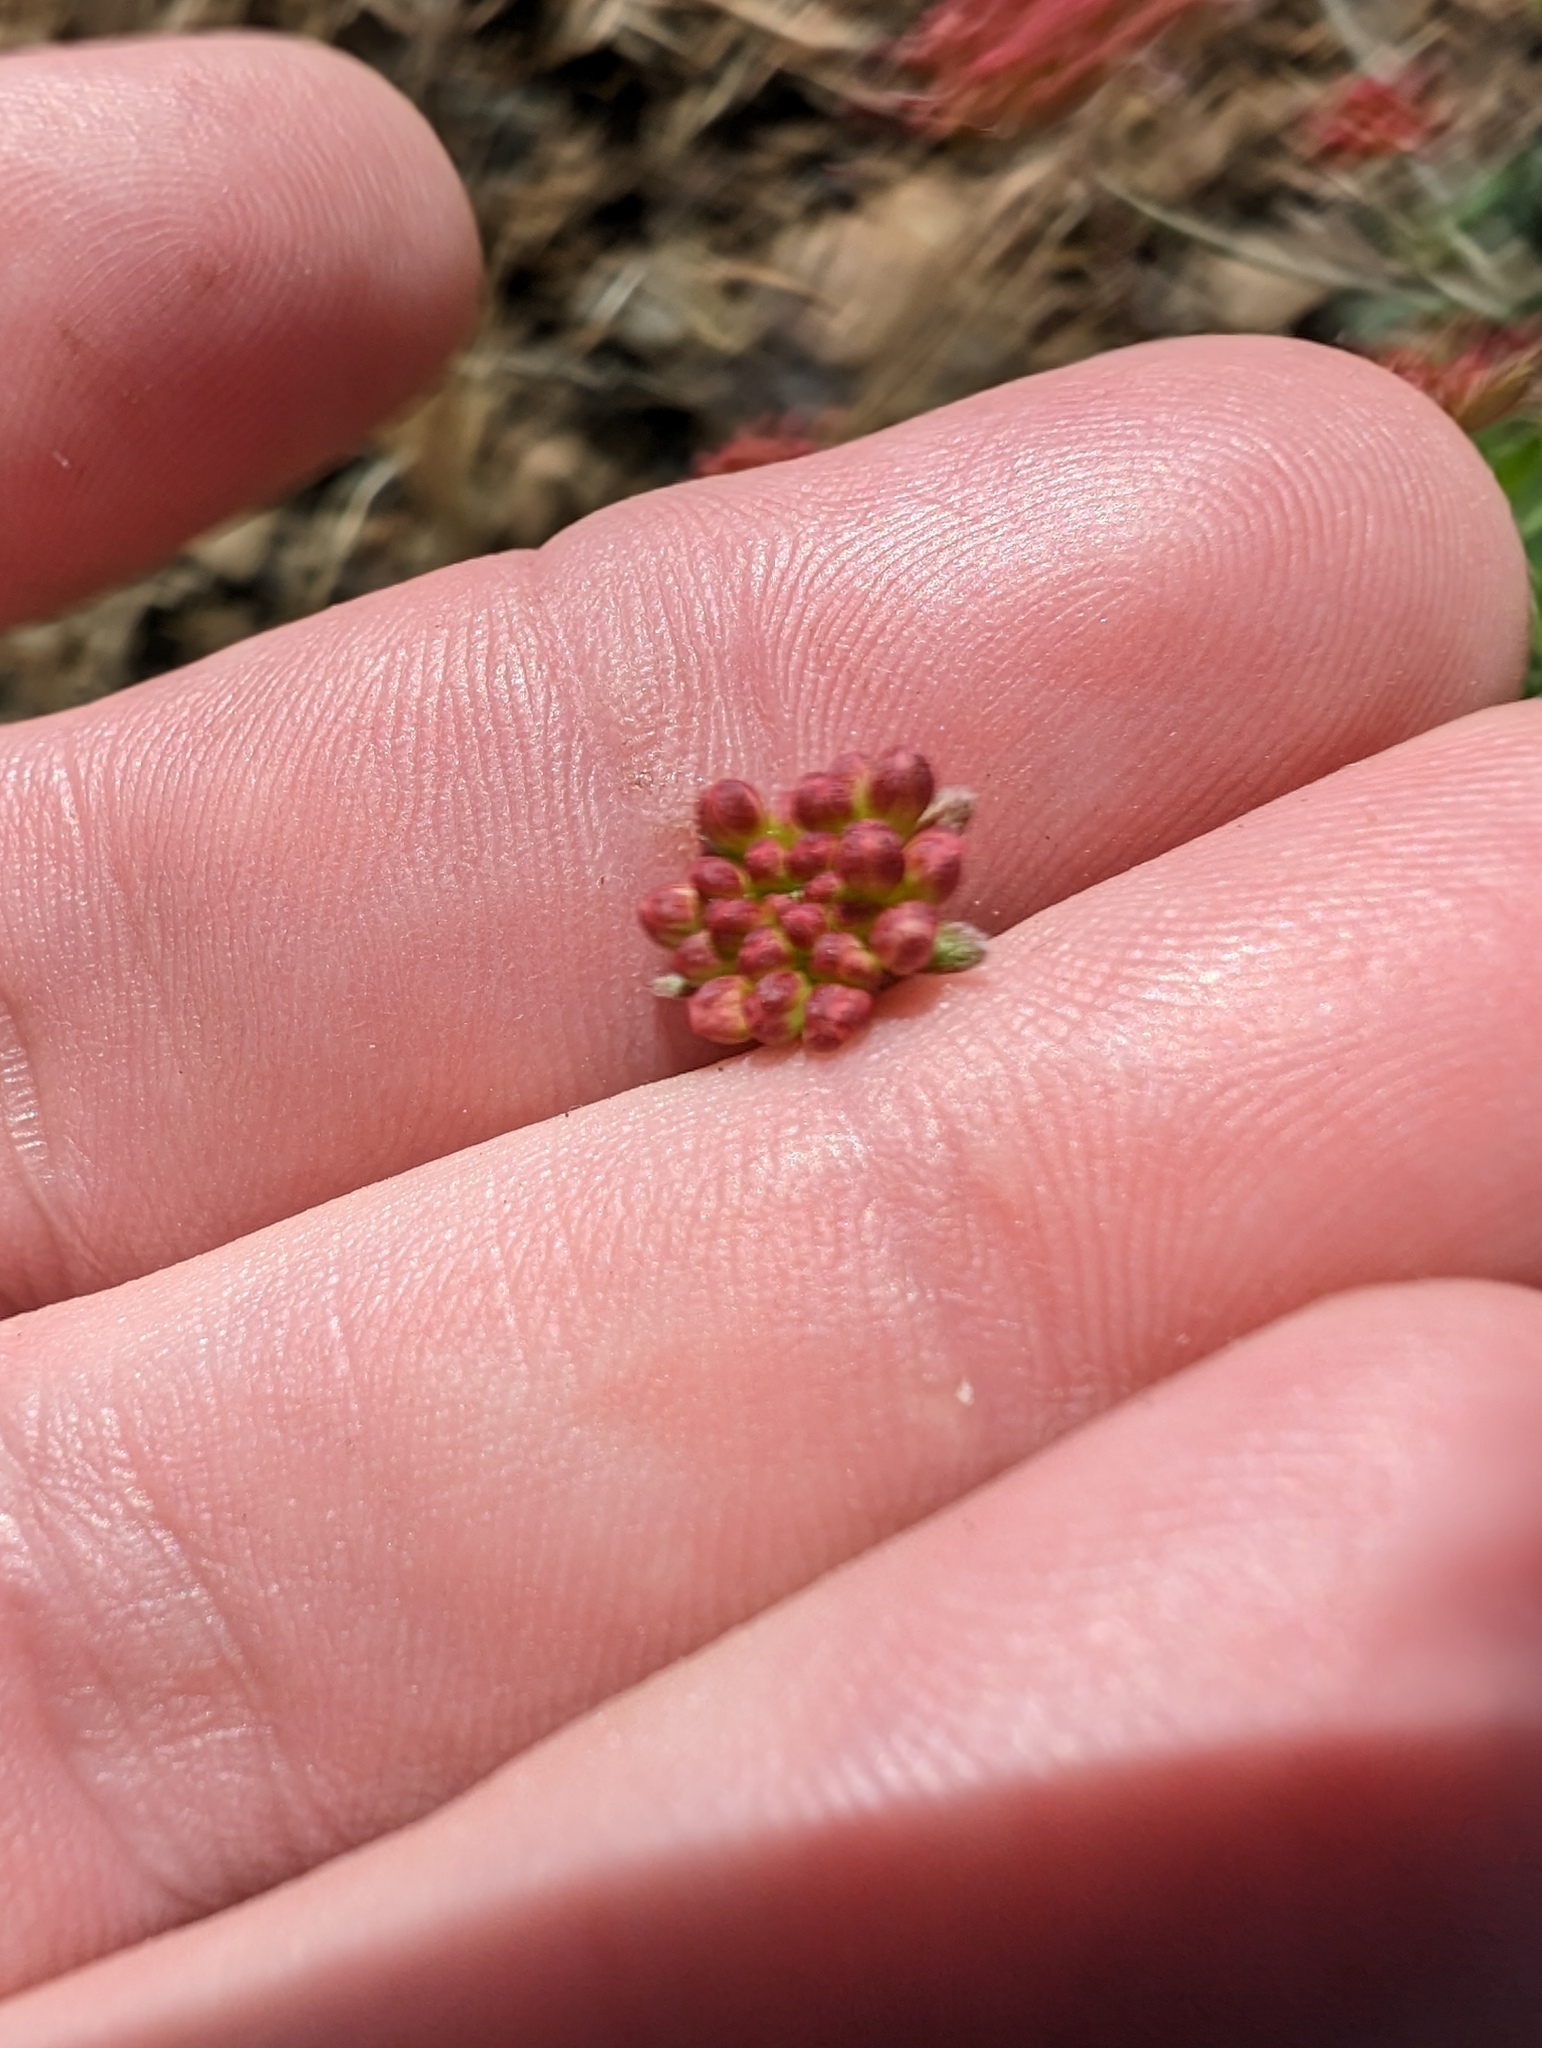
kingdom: Plantae
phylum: Tracheophyta
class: Magnoliopsida
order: Caryophyllales
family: Polygonaceae
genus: Eriogonum
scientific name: Eriogonum umbellatum
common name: Sulfur-buckwheat
